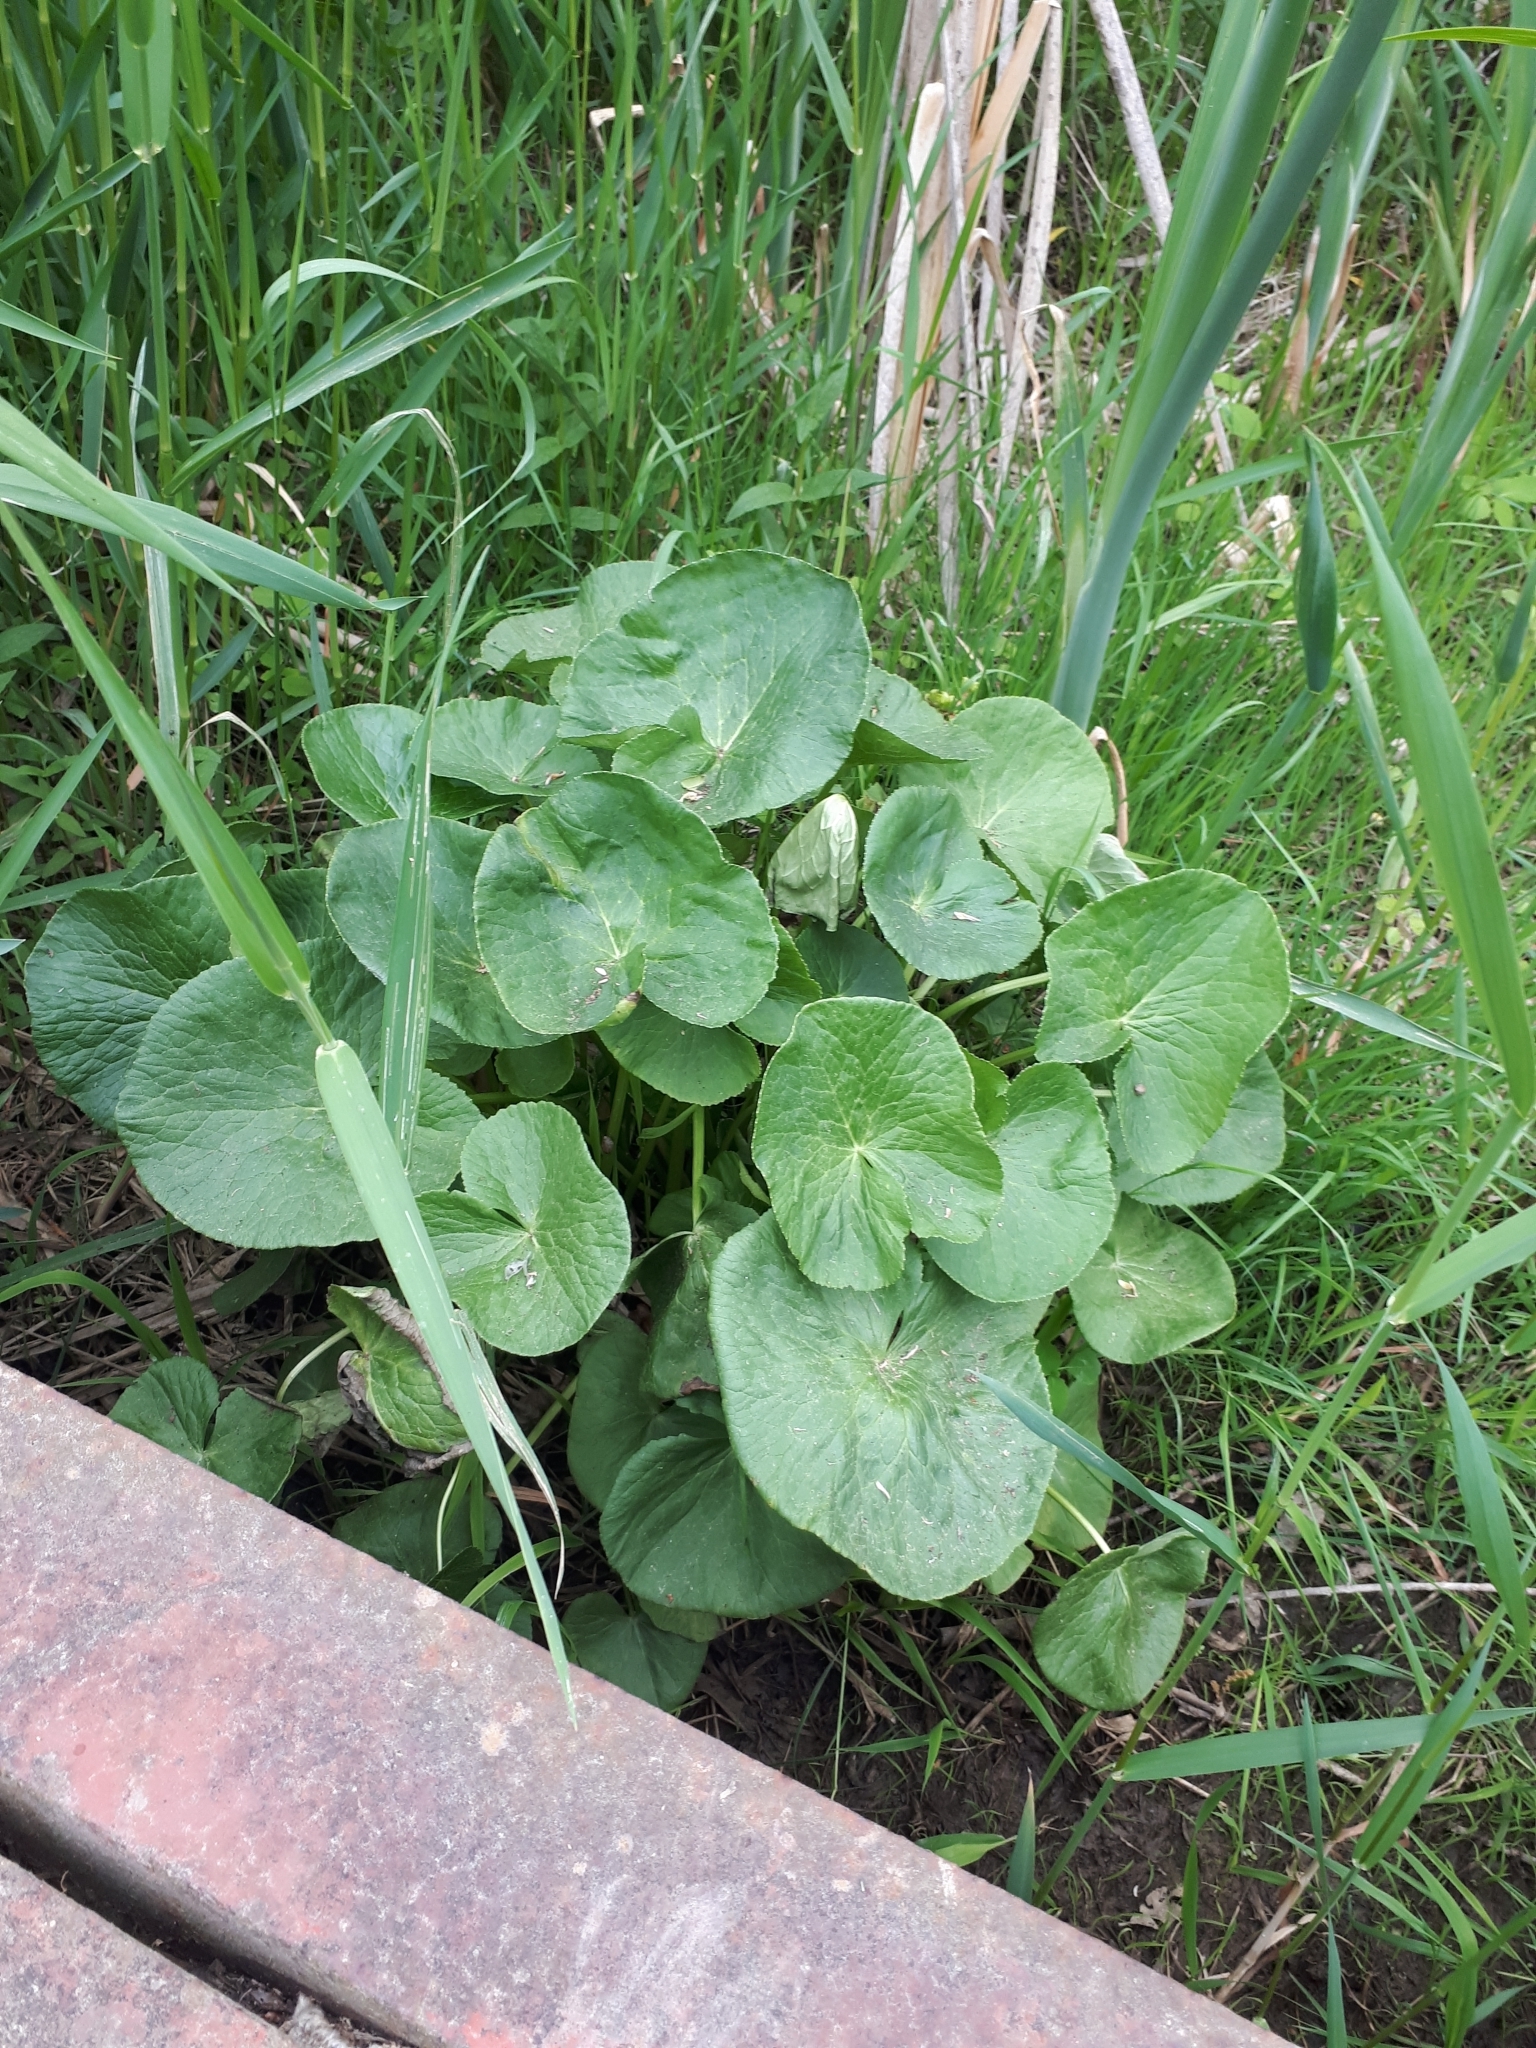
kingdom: Plantae
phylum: Tracheophyta
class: Magnoliopsida
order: Ranunculales
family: Ranunculaceae
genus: Caltha
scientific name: Caltha palustris
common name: Marsh marigold
